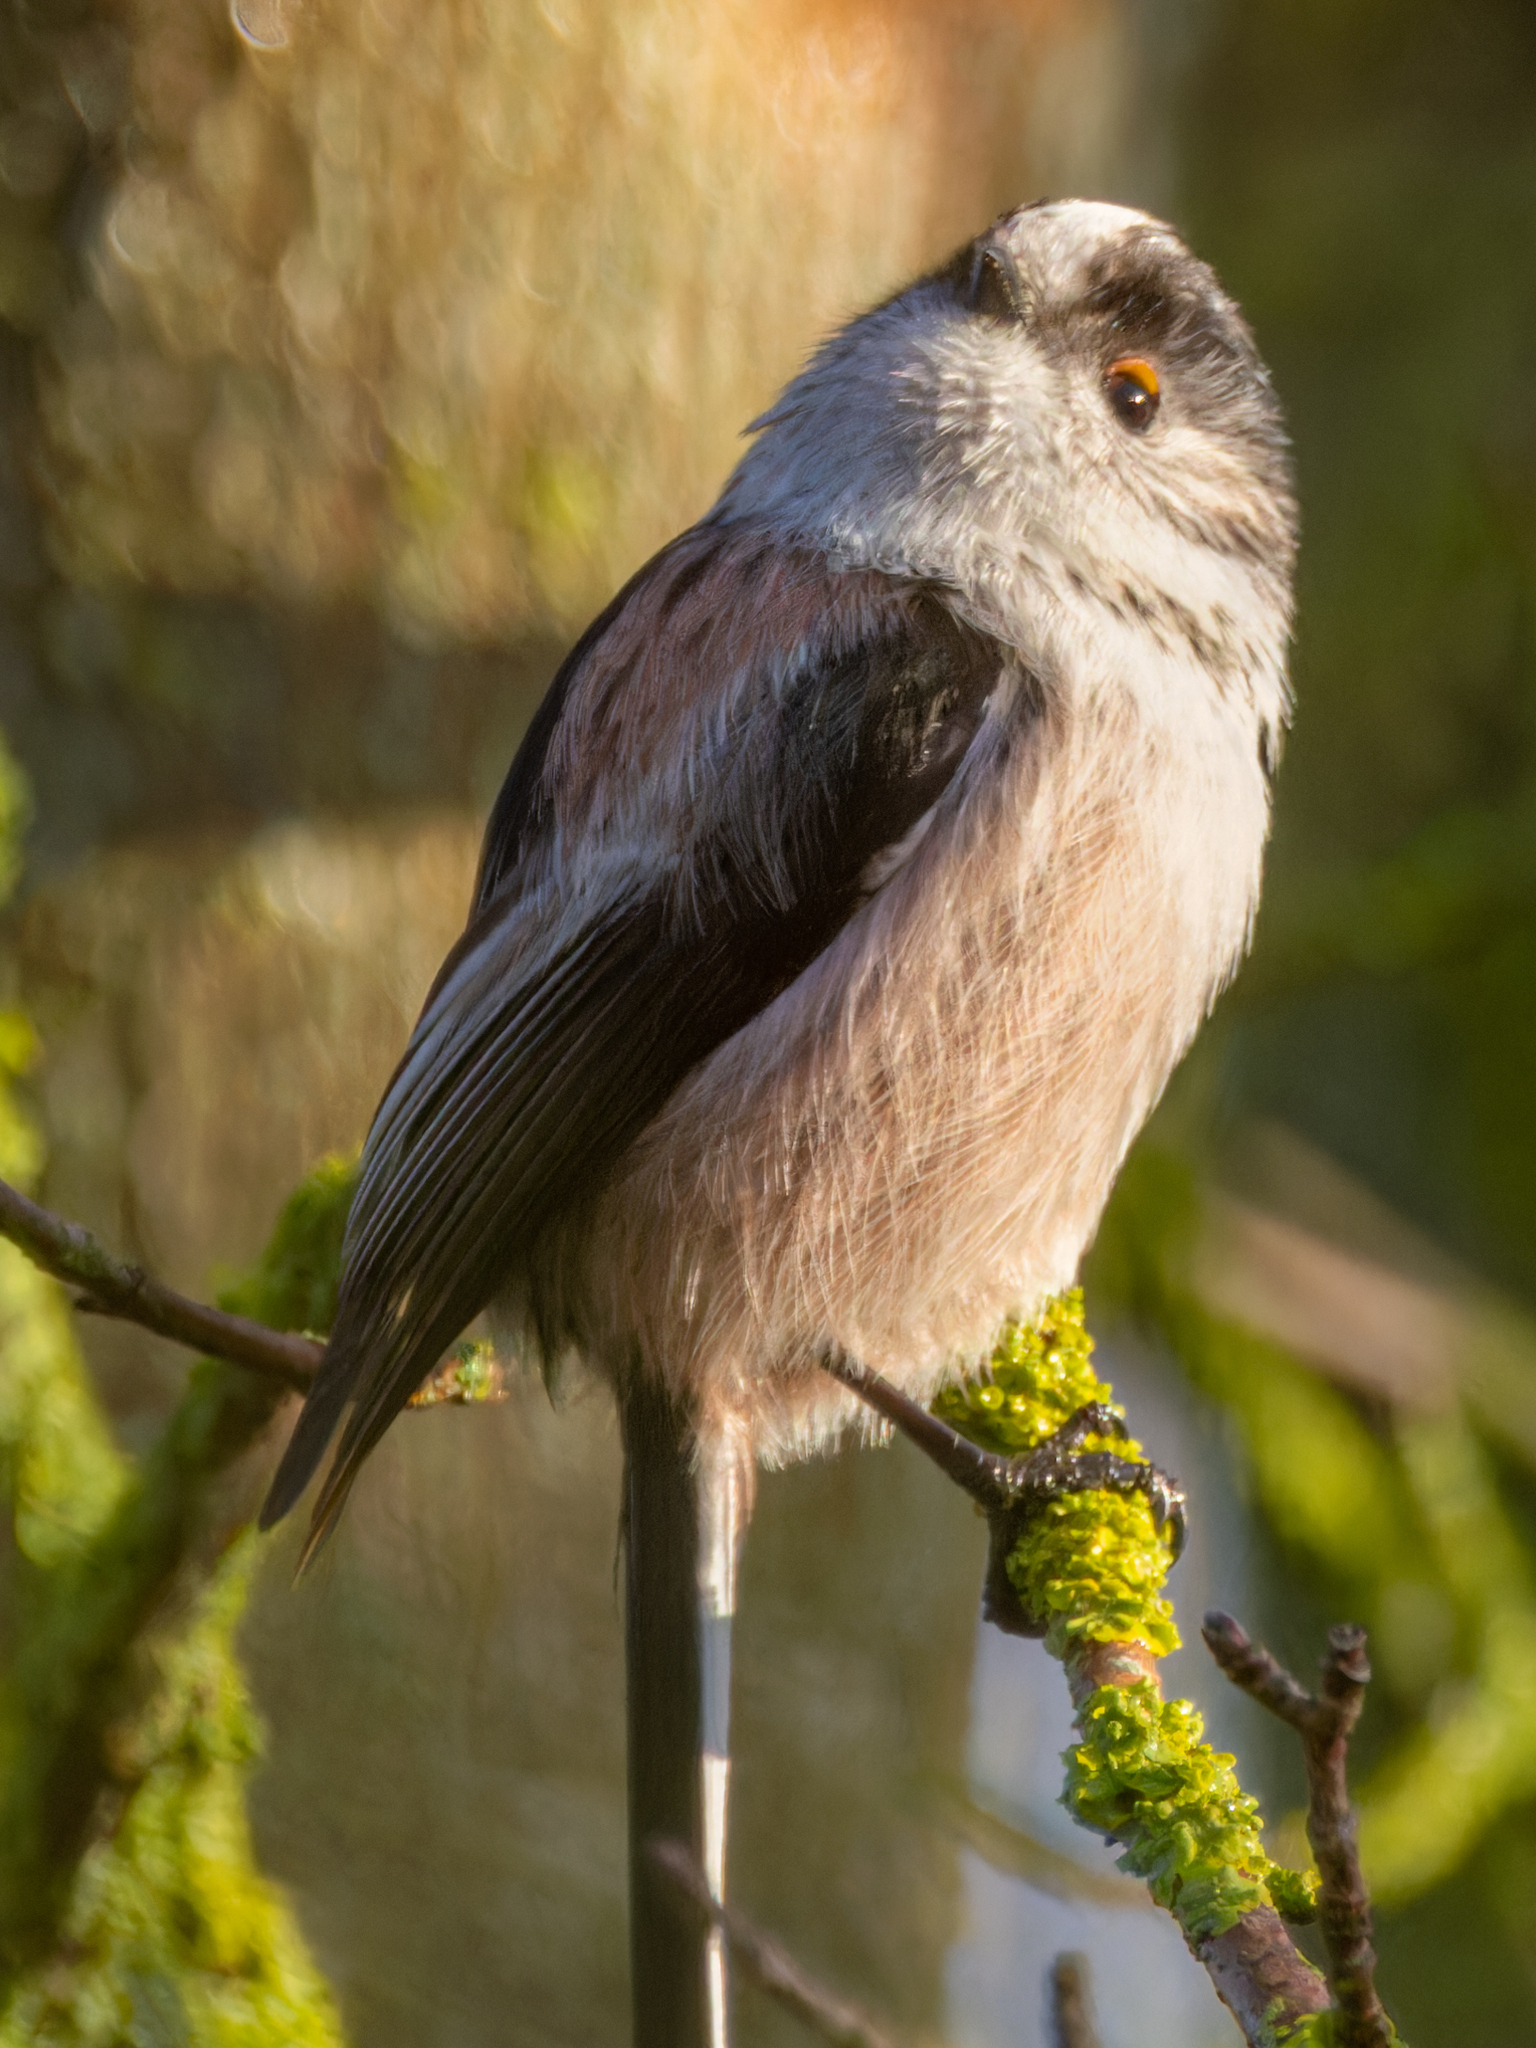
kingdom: Animalia
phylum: Chordata
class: Aves
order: Passeriformes
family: Aegithalidae
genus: Aegithalos
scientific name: Aegithalos caudatus
